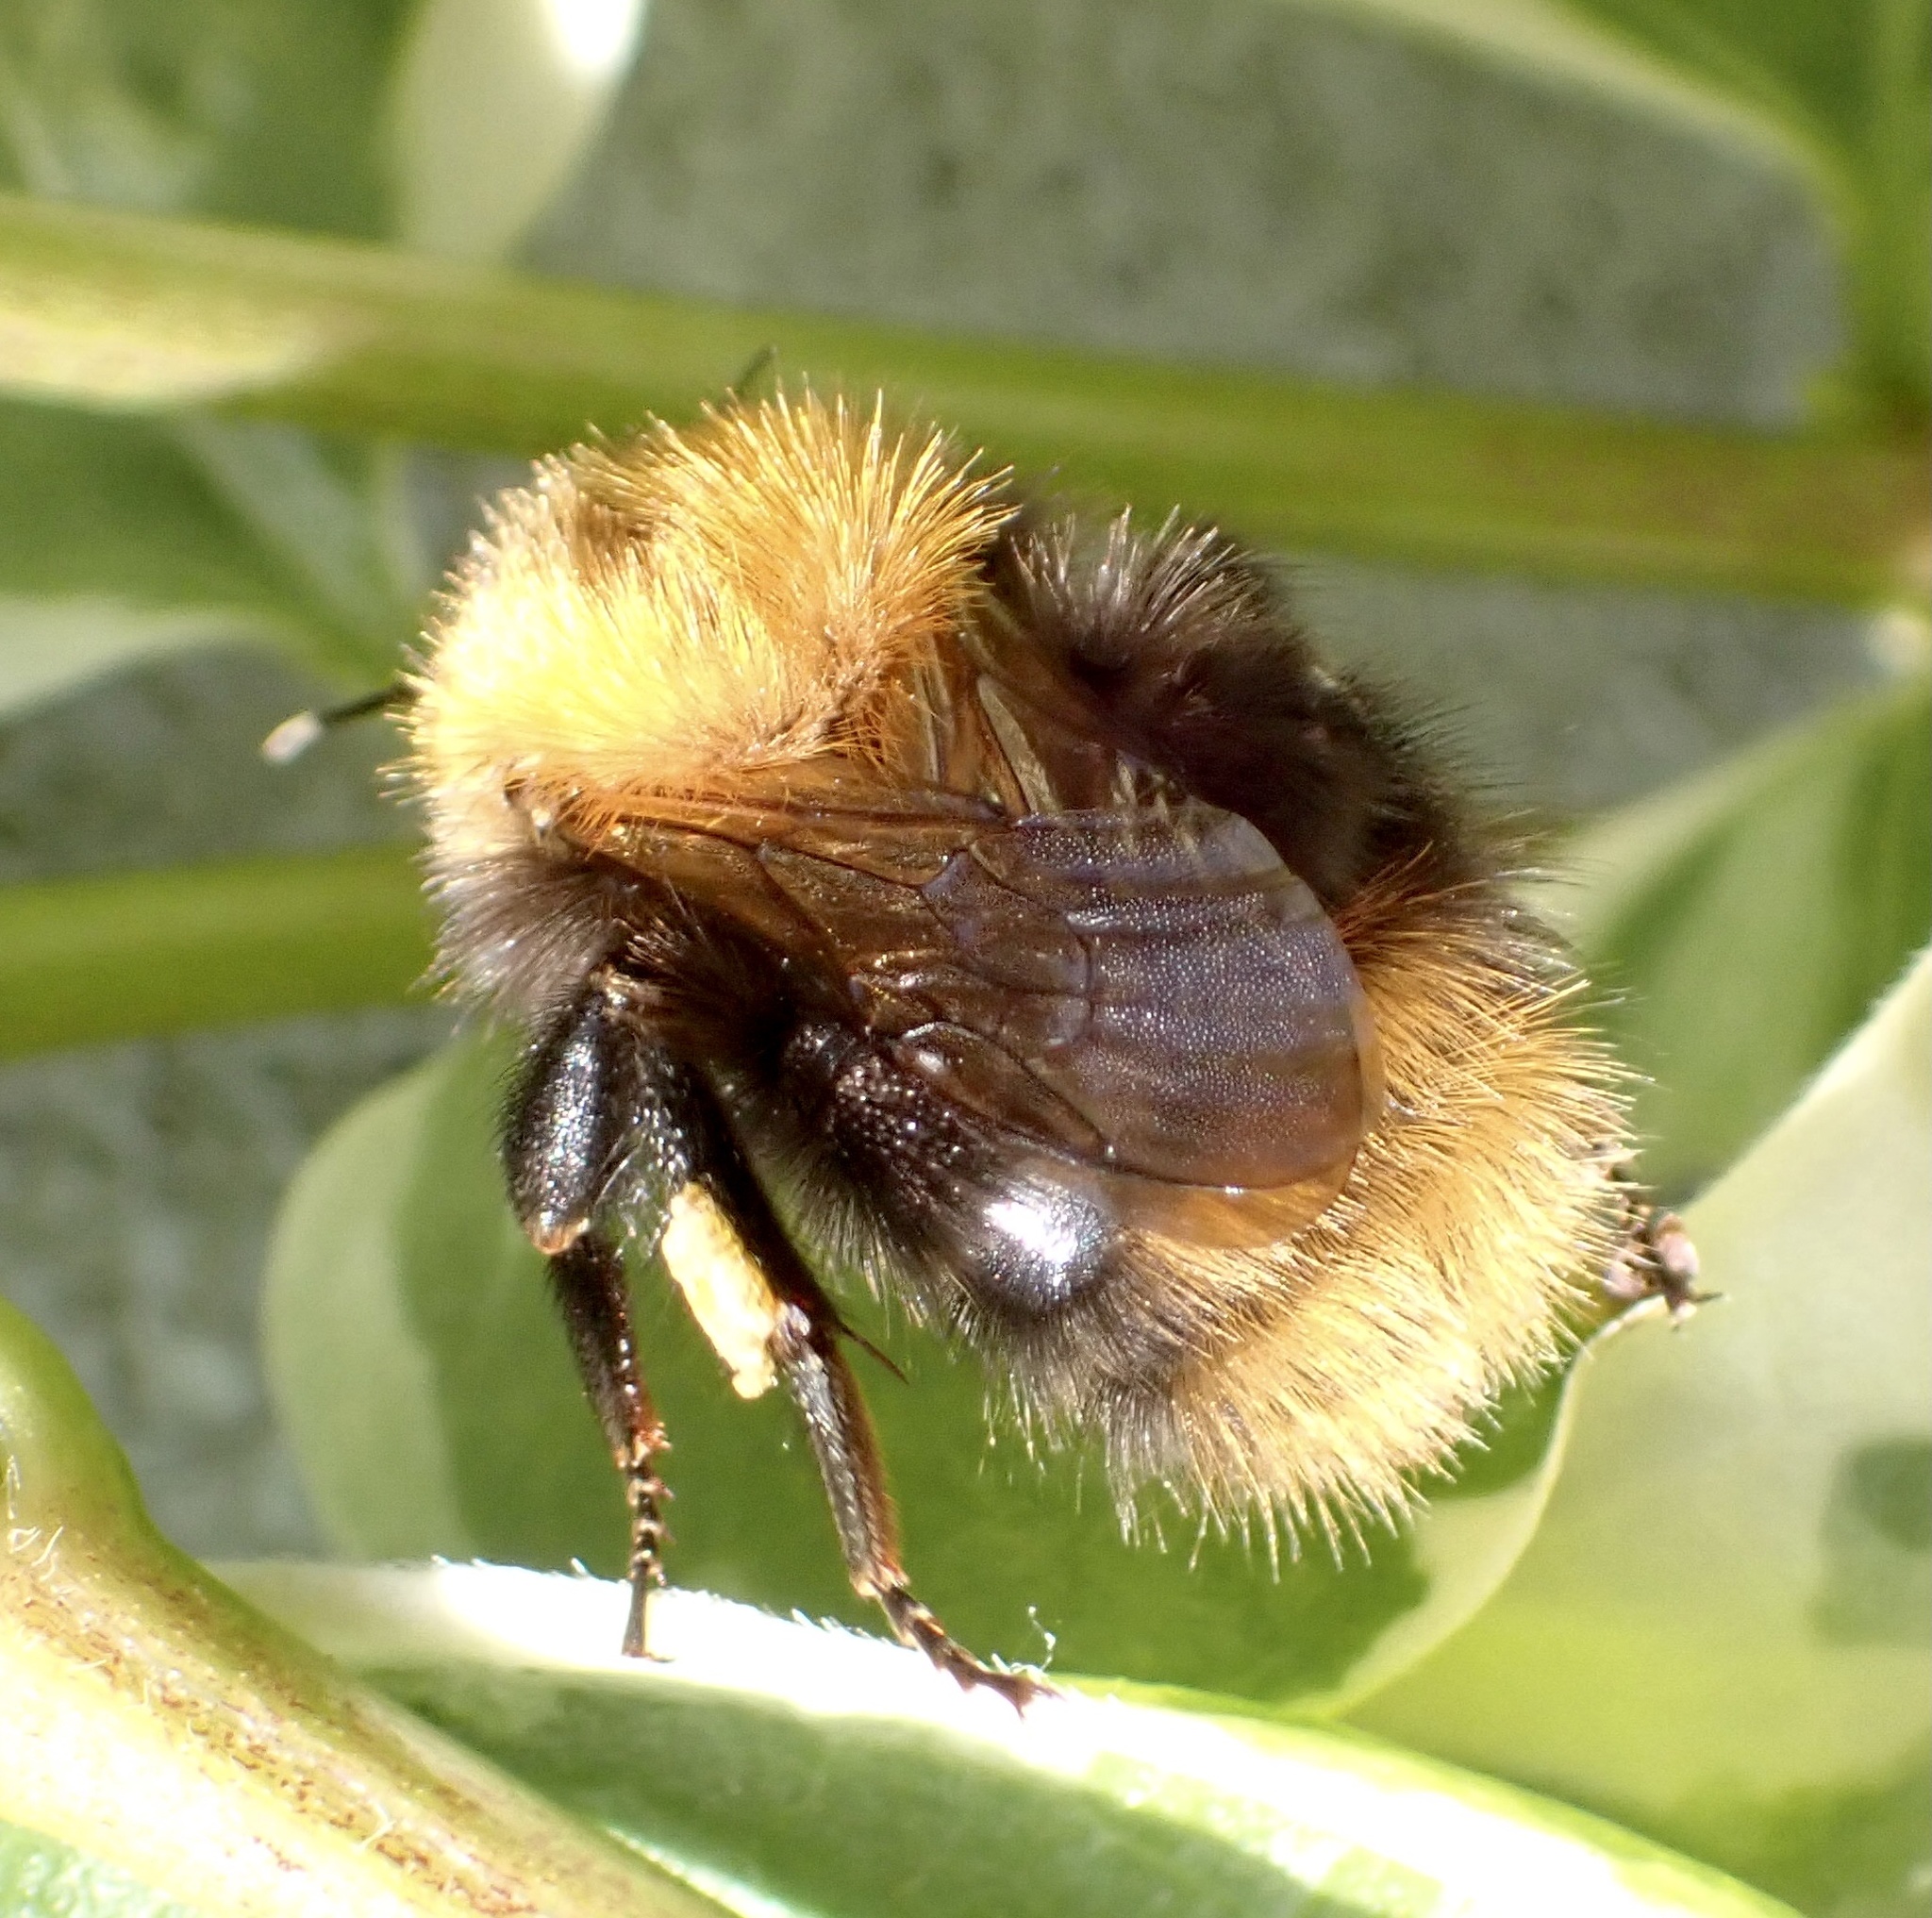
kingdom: Animalia
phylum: Arthropoda
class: Insecta
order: Hymenoptera
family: Apidae
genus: Bombus
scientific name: Bombus pascuorum
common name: Common carder bee
